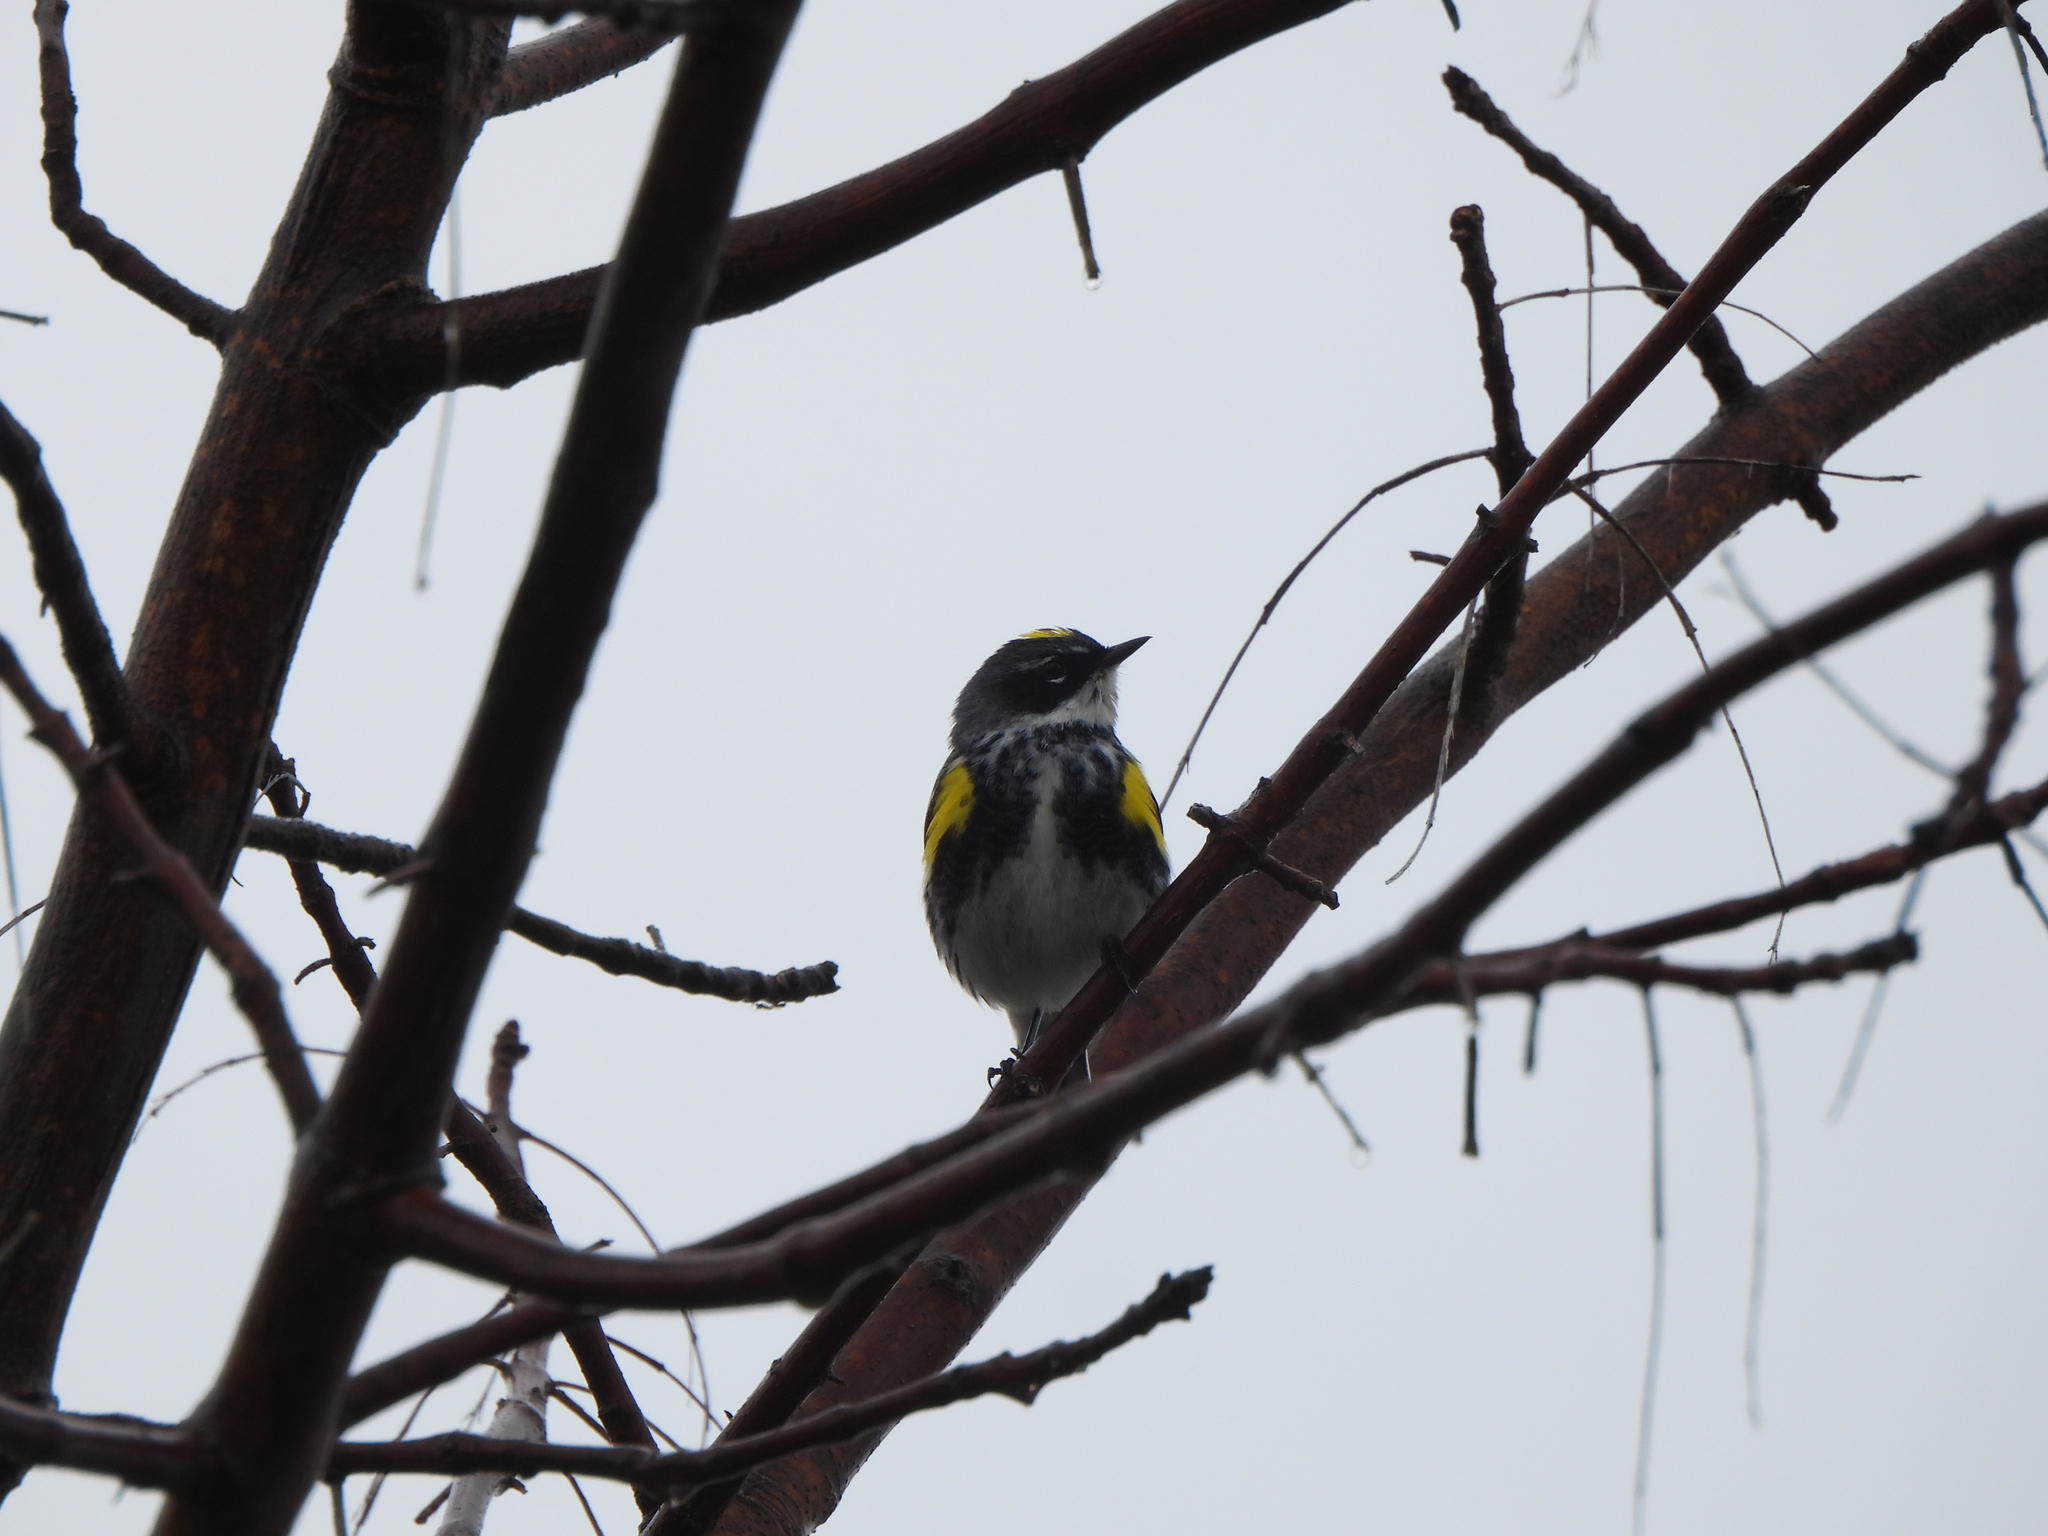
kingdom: Animalia
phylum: Chordata
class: Aves
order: Passeriformes
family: Parulidae
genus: Setophaga
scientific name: Setophaga coronata
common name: Myrtle warbler
